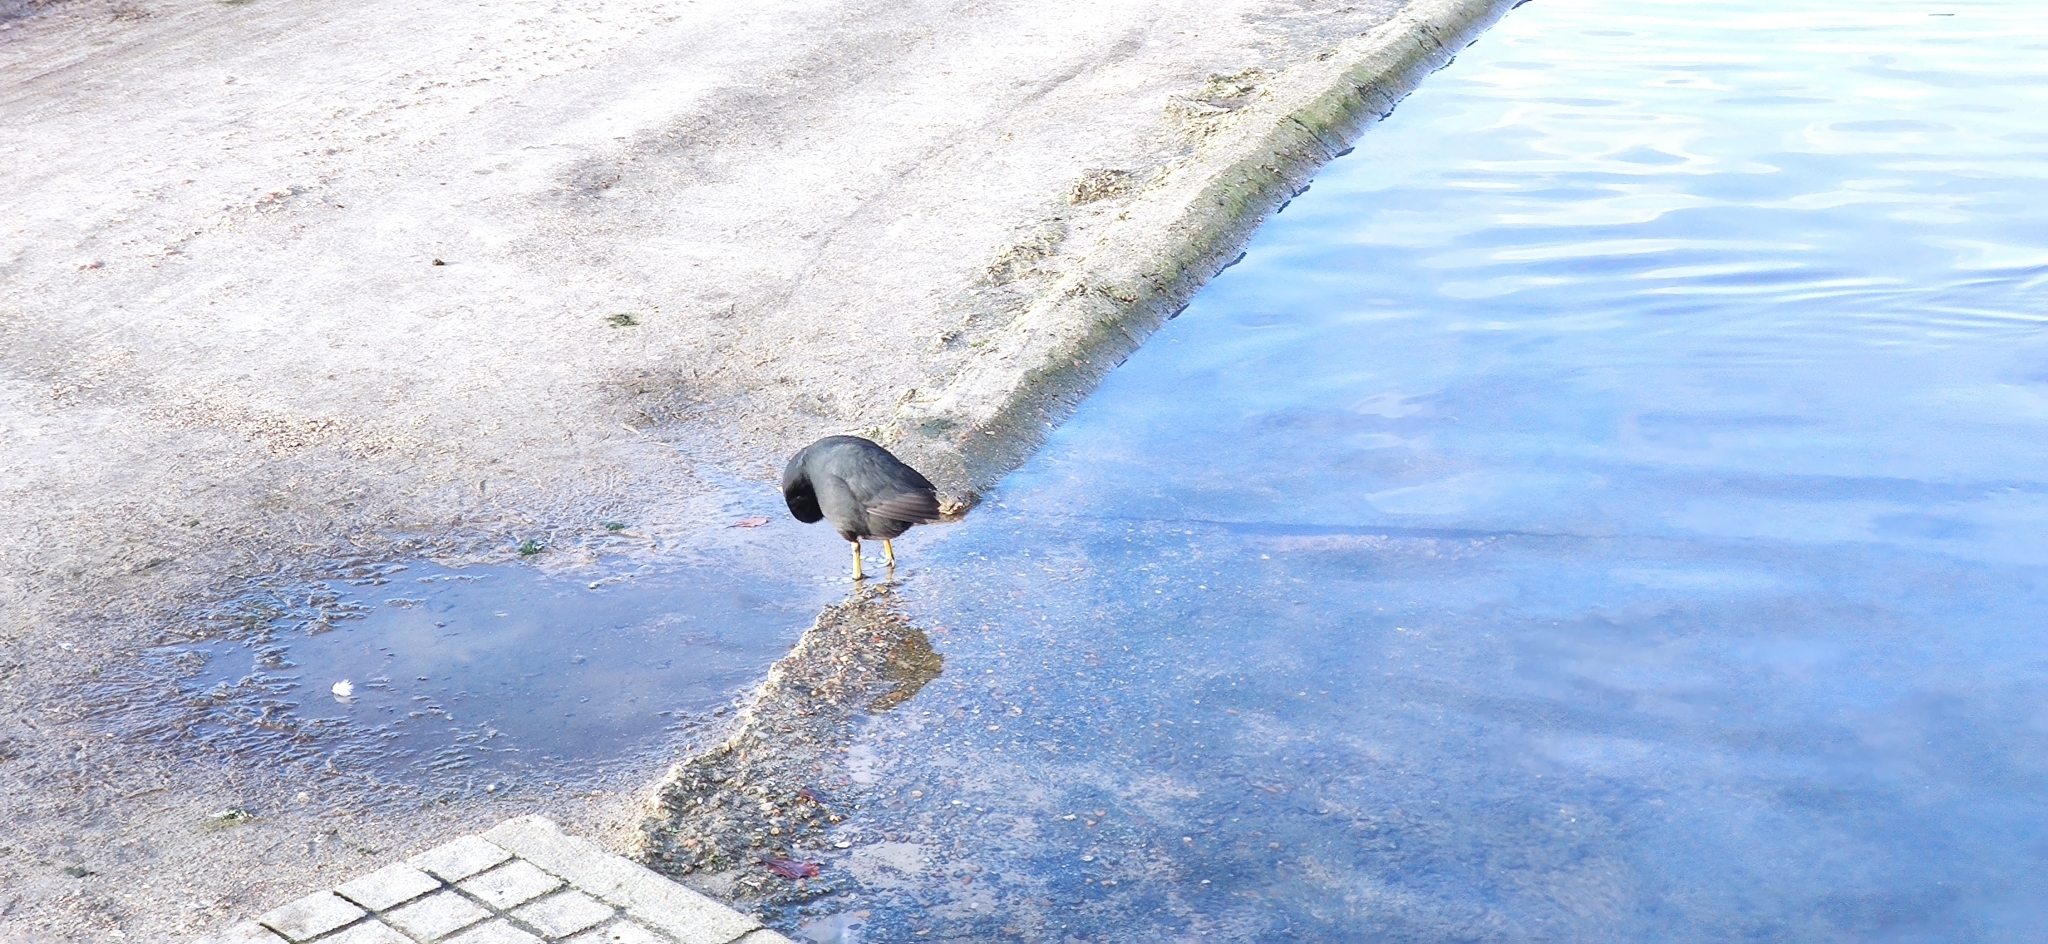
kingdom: Animalia
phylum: Chordata
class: Aves
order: Gruiformes
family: Rallidae
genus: Fulica
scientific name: Fulica atra
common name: Eurasian coot
